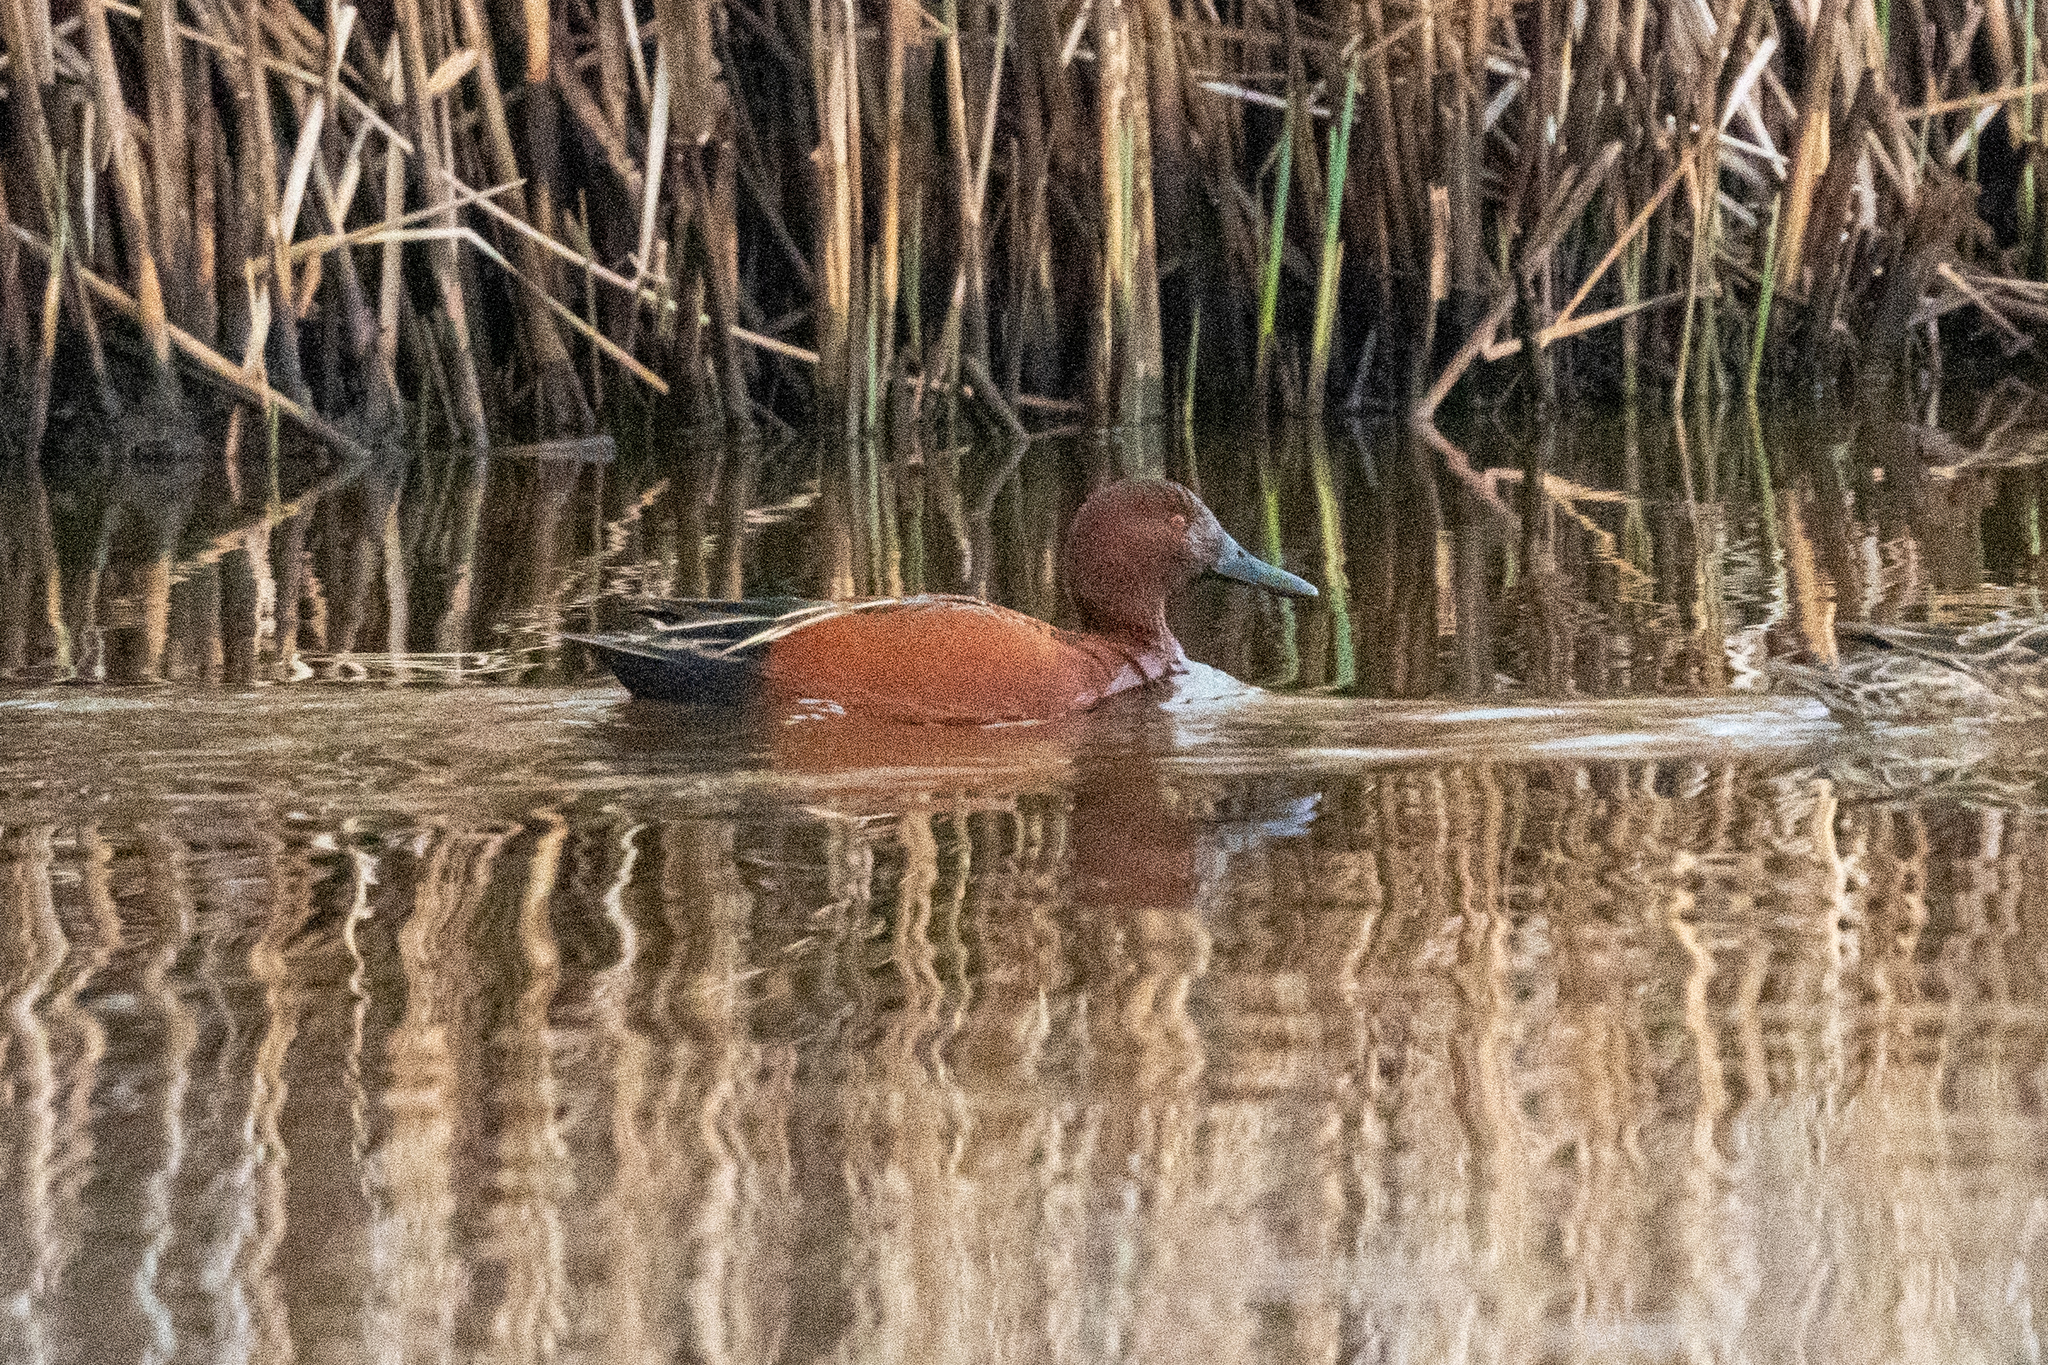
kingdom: Animalia
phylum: Chordata
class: Aves
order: Anseriformes
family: Anatidae
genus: Spatula
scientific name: Spatula cyanoptera
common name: Cinnamon teal
